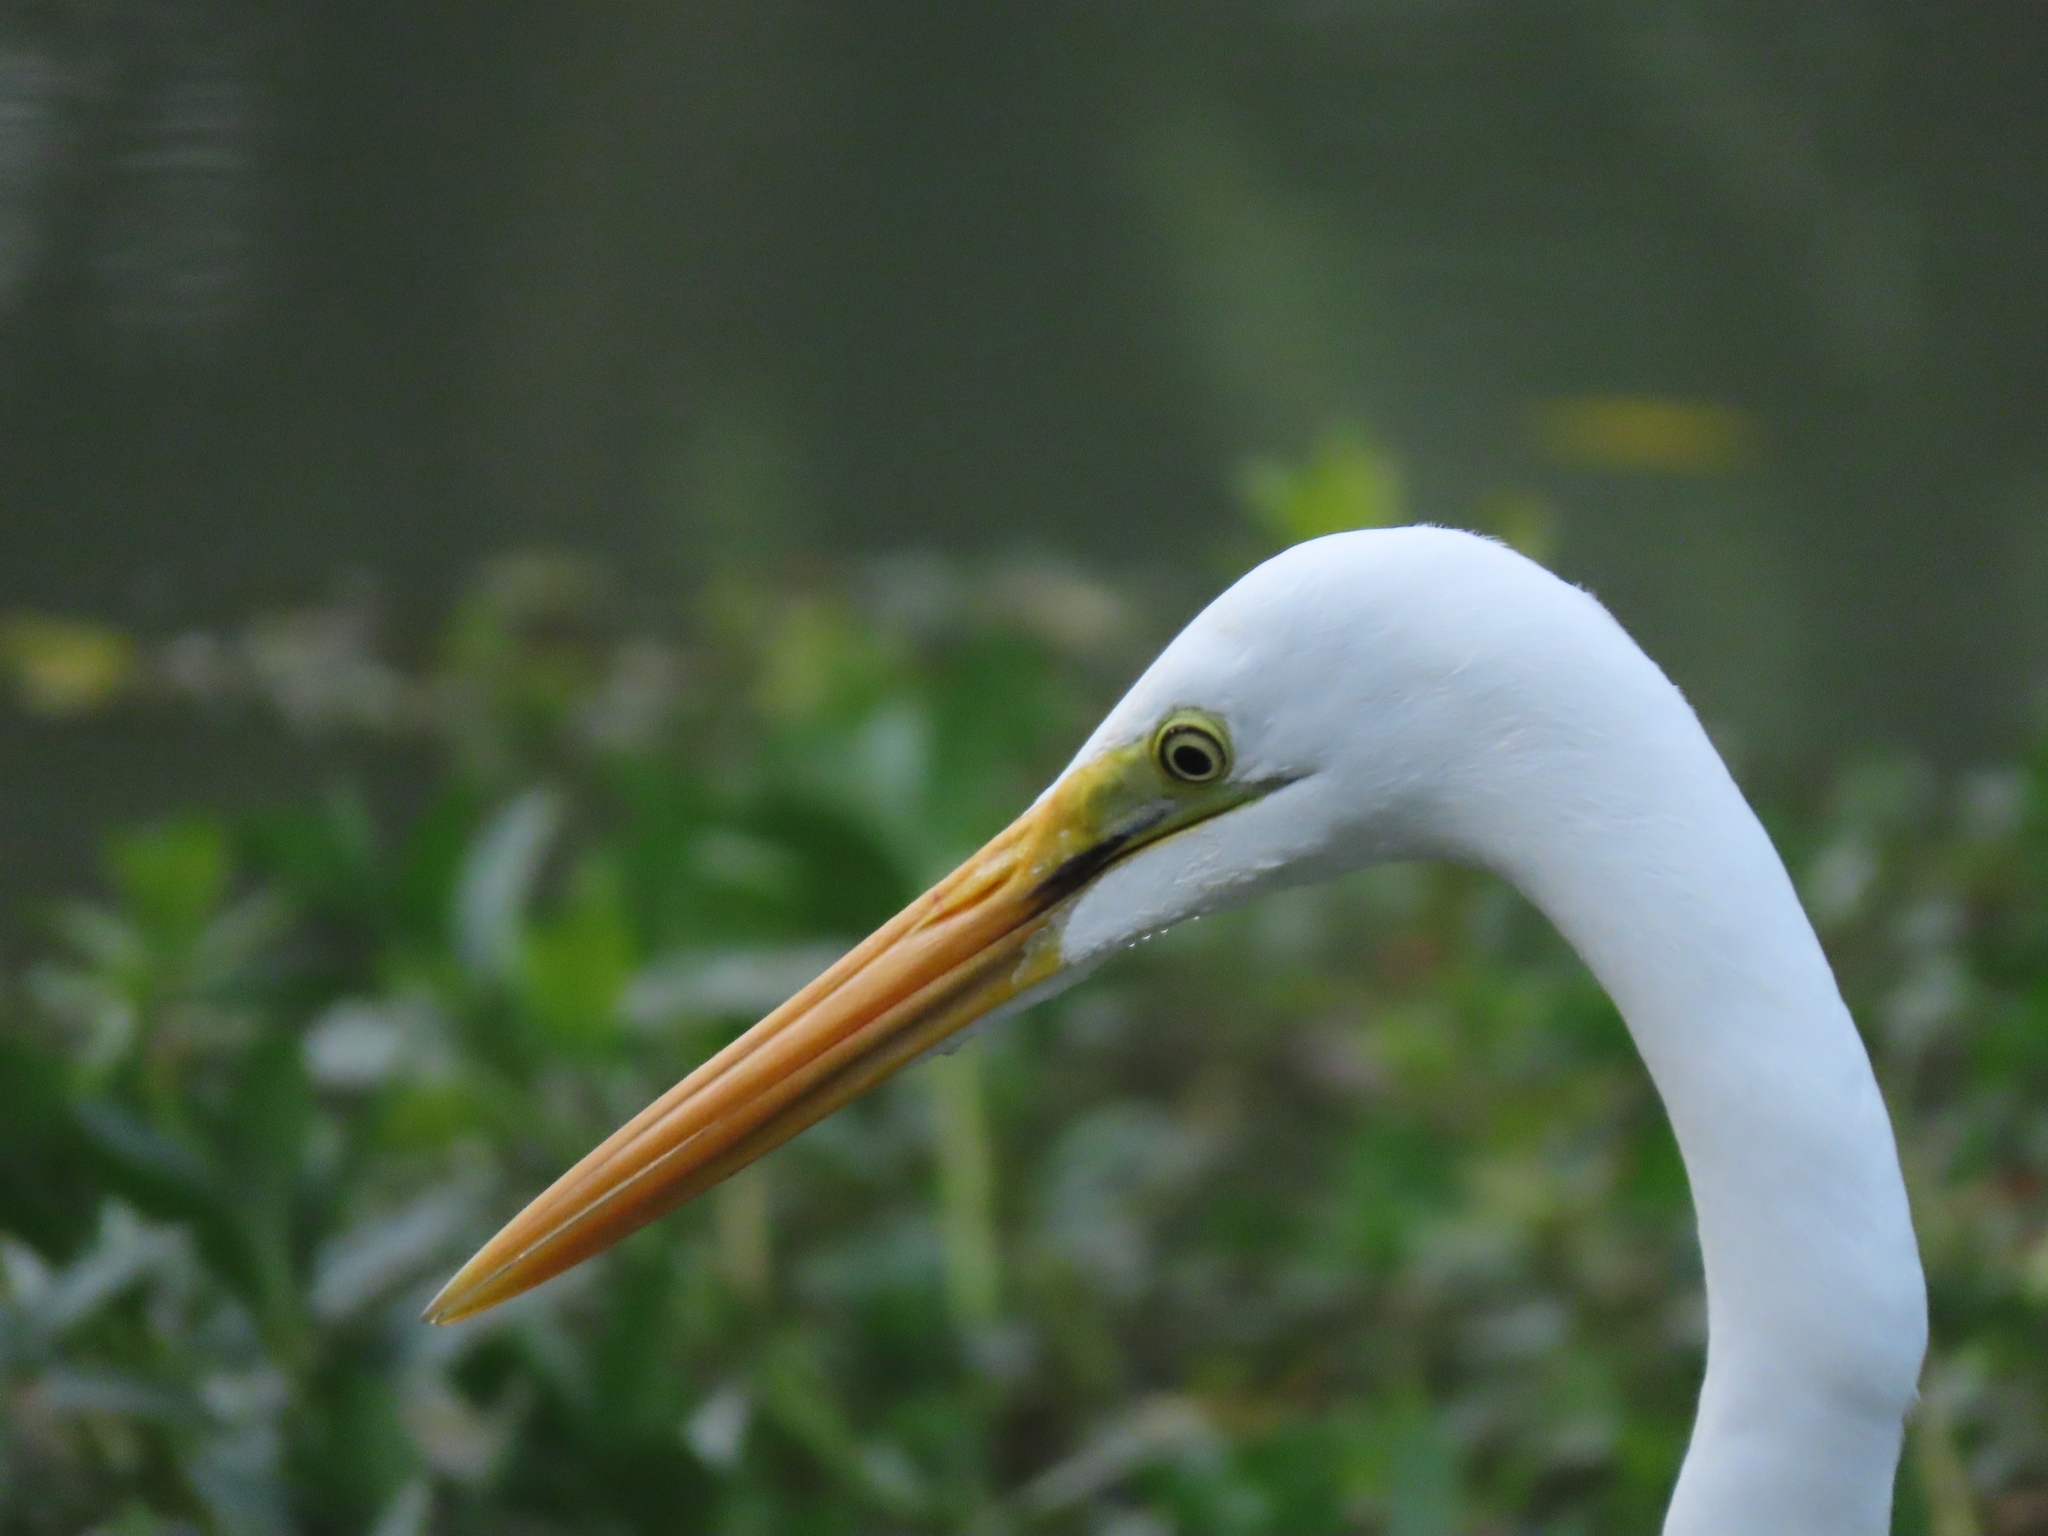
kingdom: Animalia
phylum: Chordata
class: Aves
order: Pelecaniformes
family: Ardeidae
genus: Ardea
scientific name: Ardea alba
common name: Great egret
